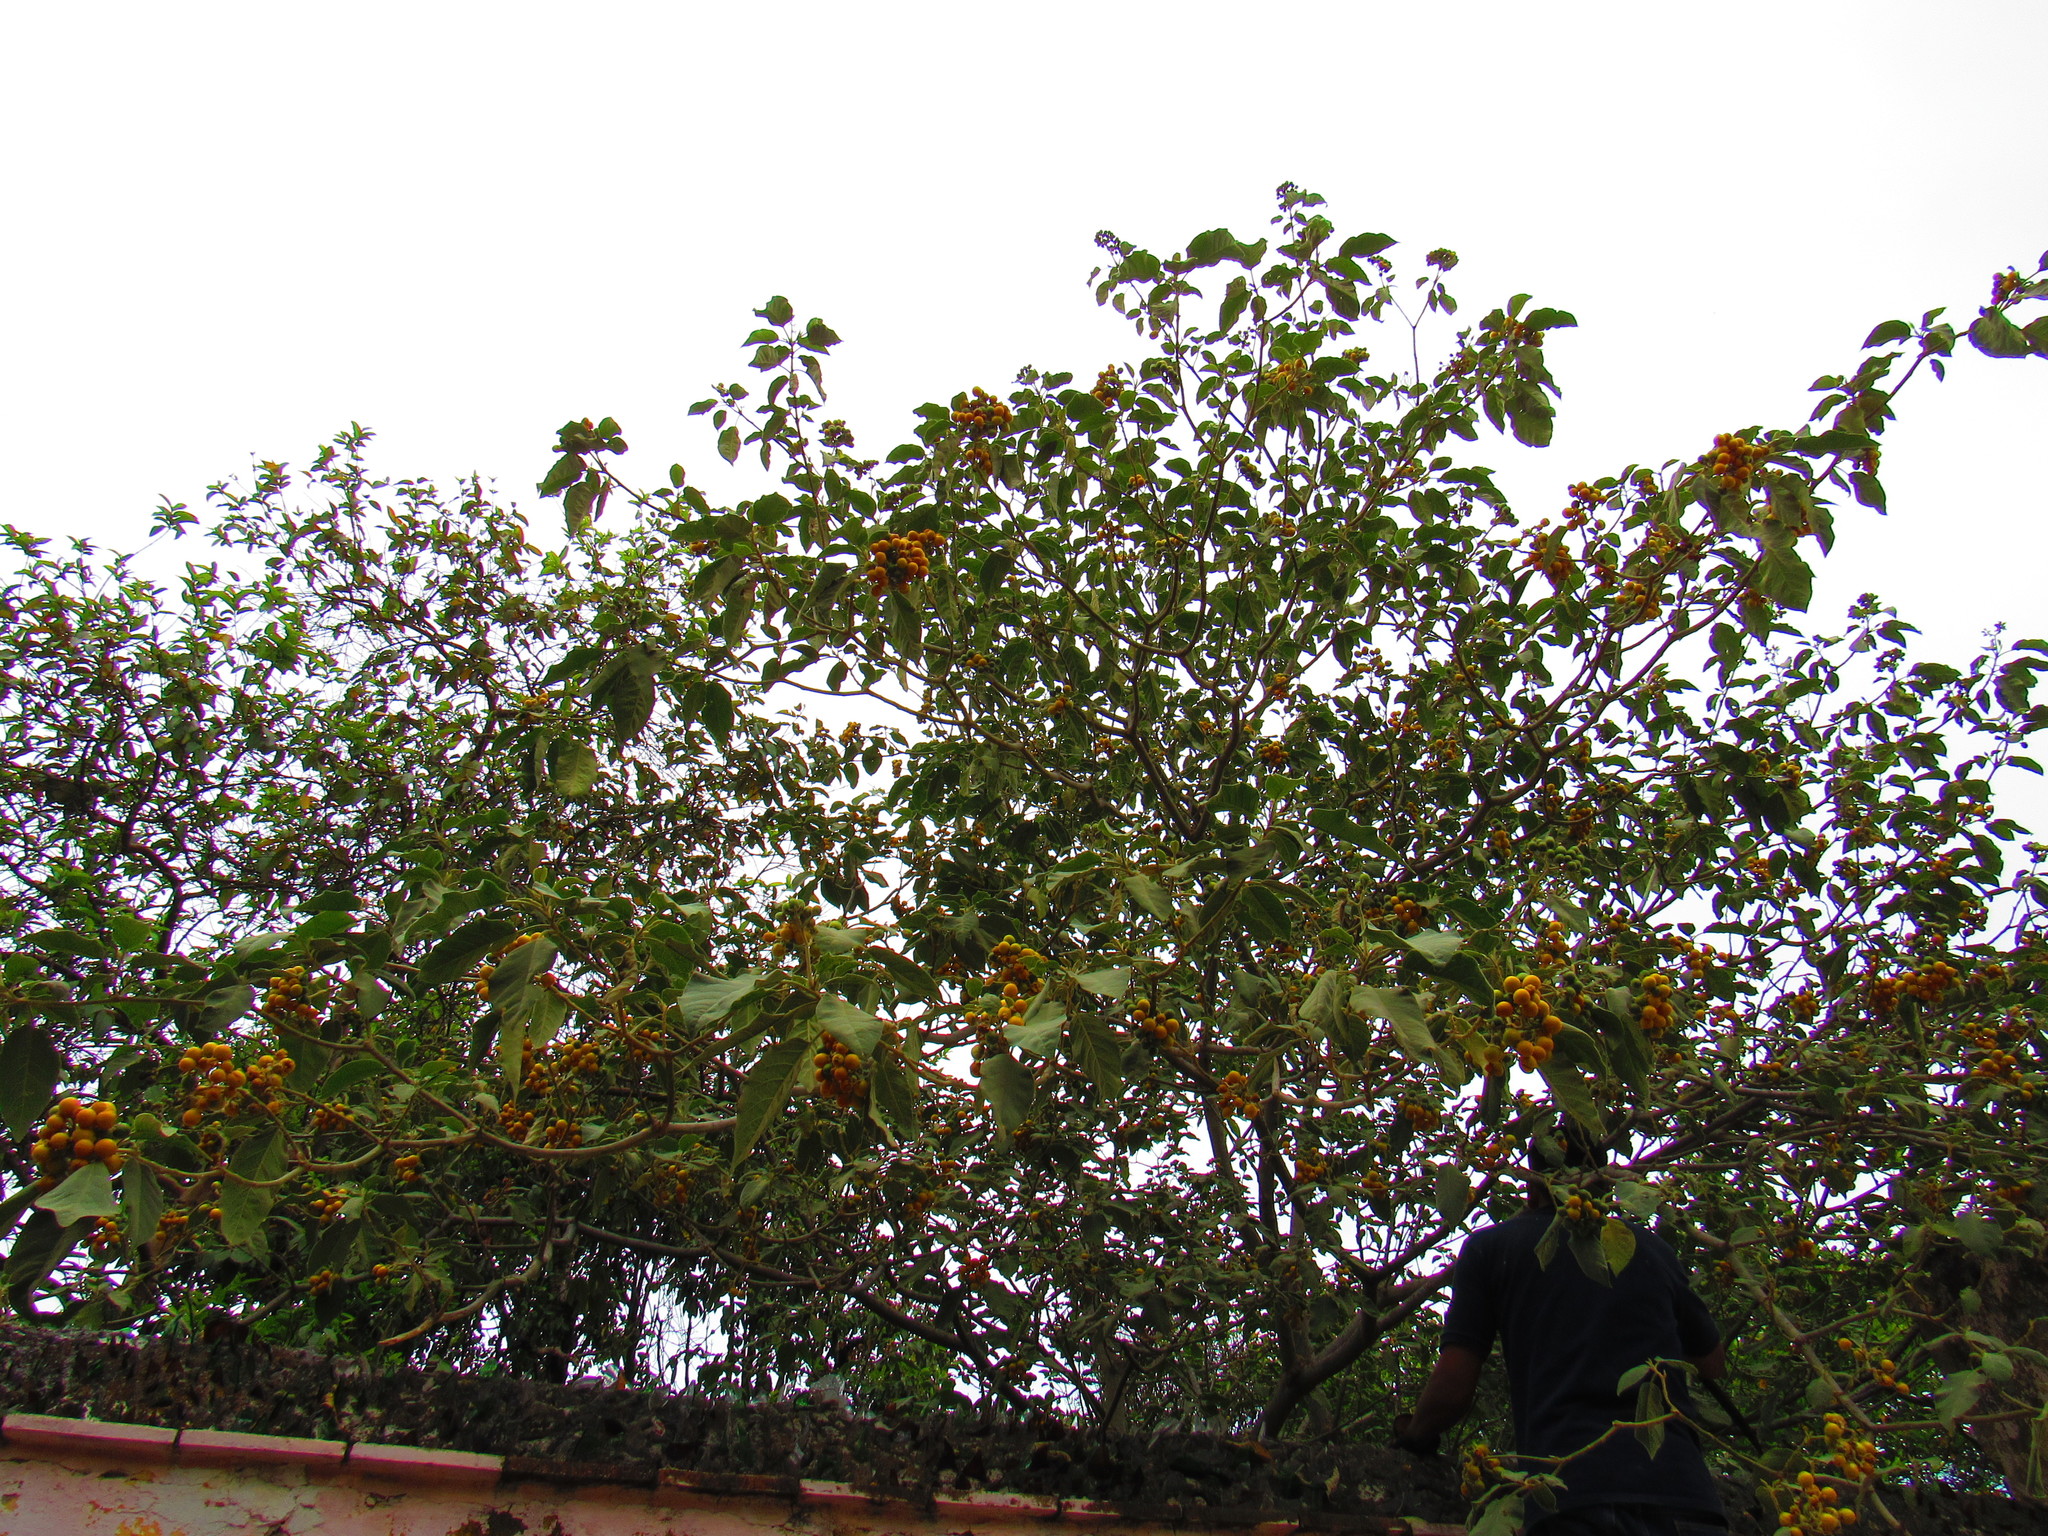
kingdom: Plantae
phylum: Tracheophyta
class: Magnoliopsida
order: Solanales
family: Solanaceae
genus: Solanum
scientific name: Solanum erianthum
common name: Tobacco-tree
